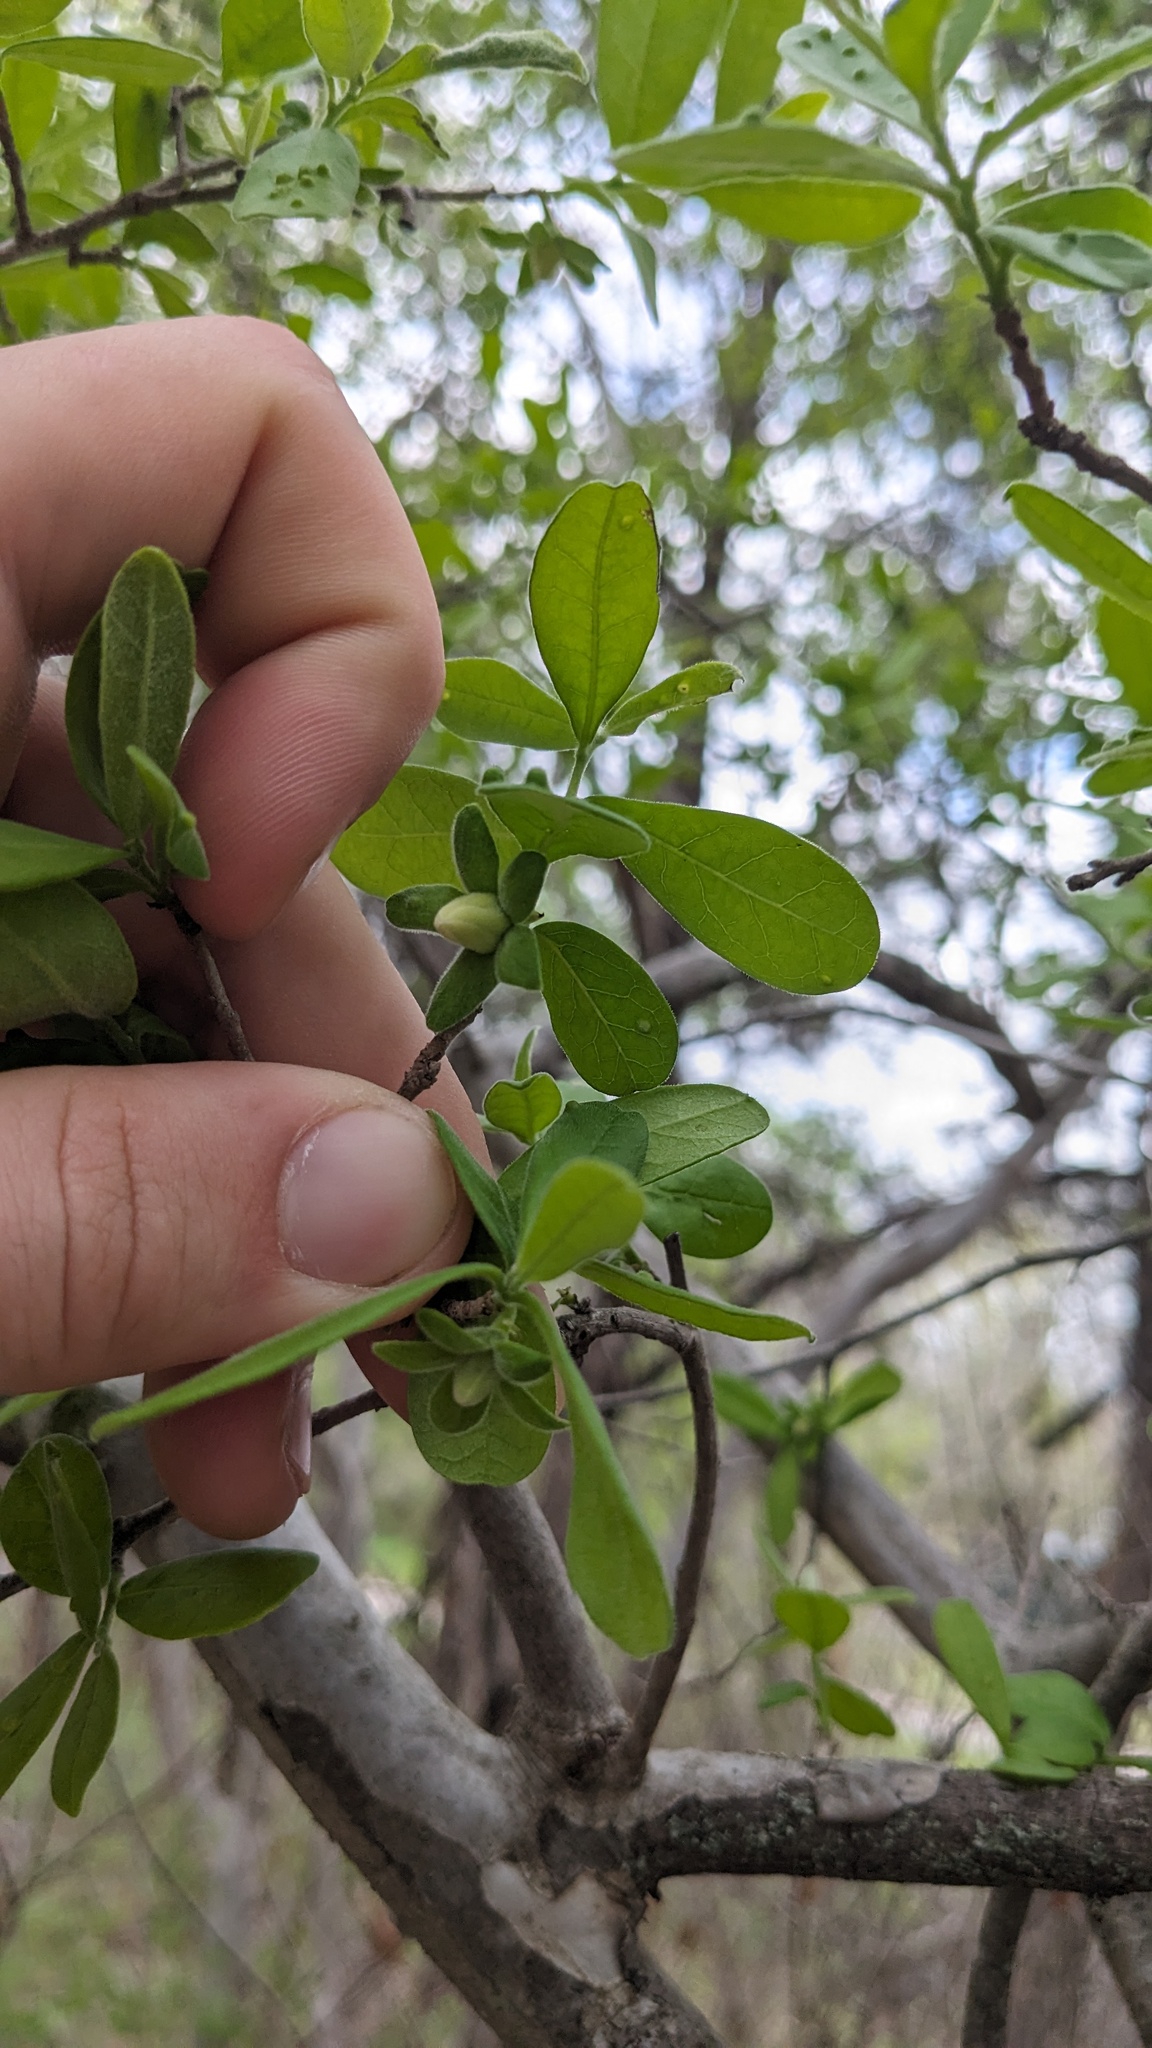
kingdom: Plantae
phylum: Tracheophyta
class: Magnoliopsida
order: Ericales
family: Ebenaceae
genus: Diospyros
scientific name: Diospyros texana
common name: Texas persimmon
